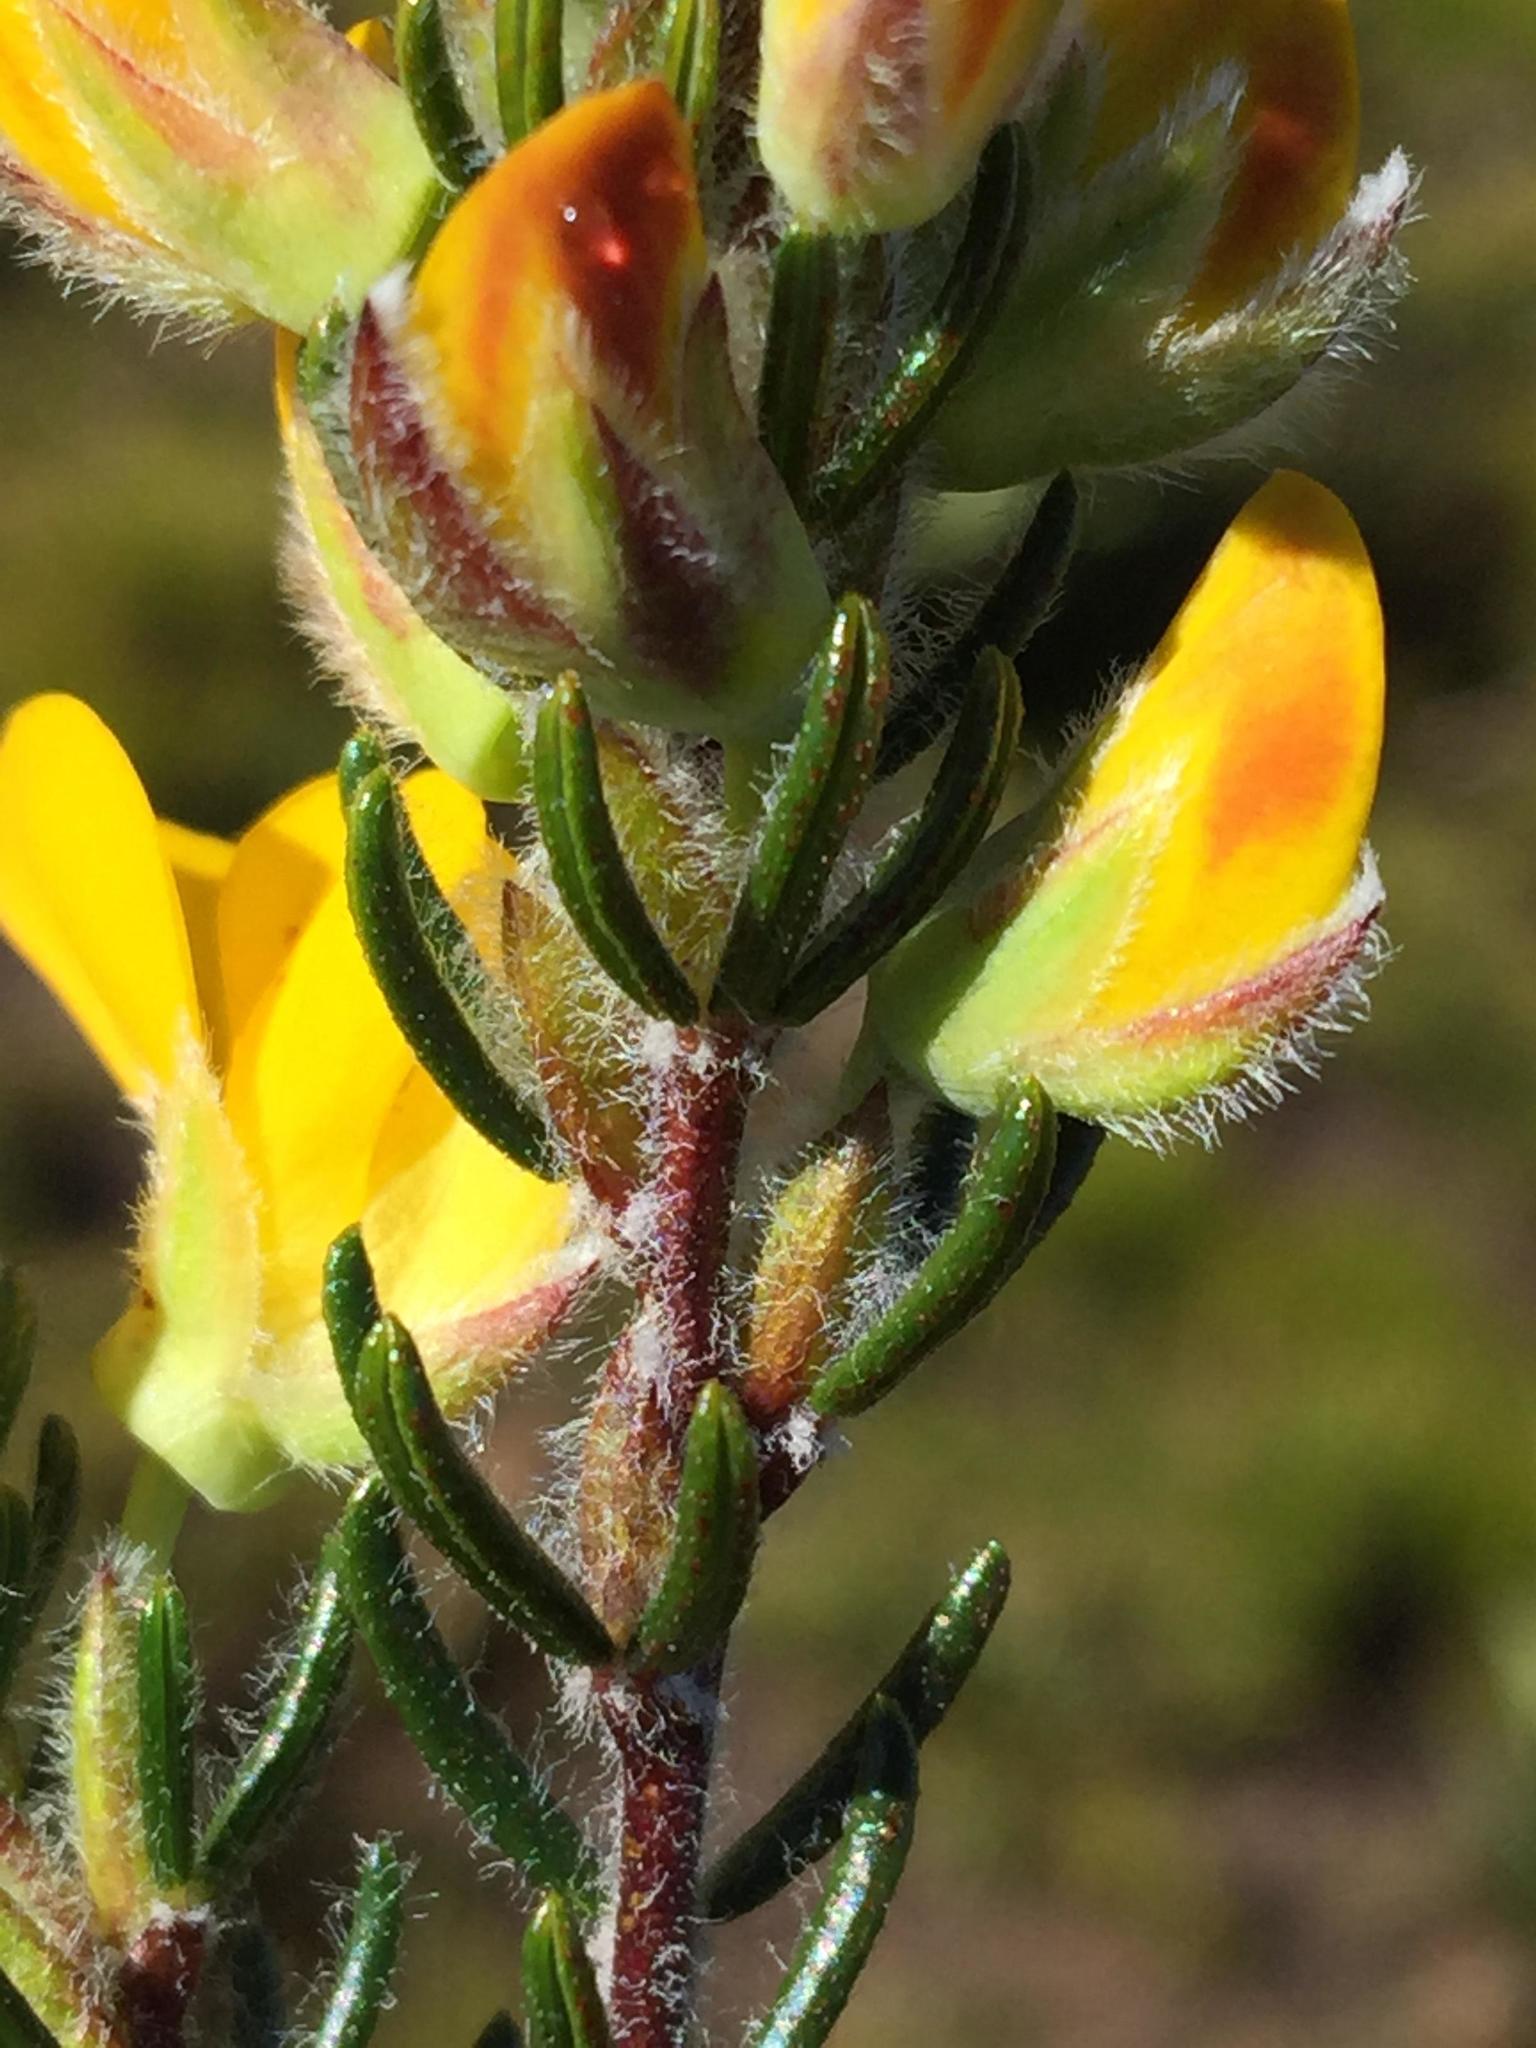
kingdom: Plantae
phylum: Tracheophyta
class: Magnoliopsida
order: Fabales
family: Fabaceae
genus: Cyclopia
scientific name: Cyclopia aurescens
